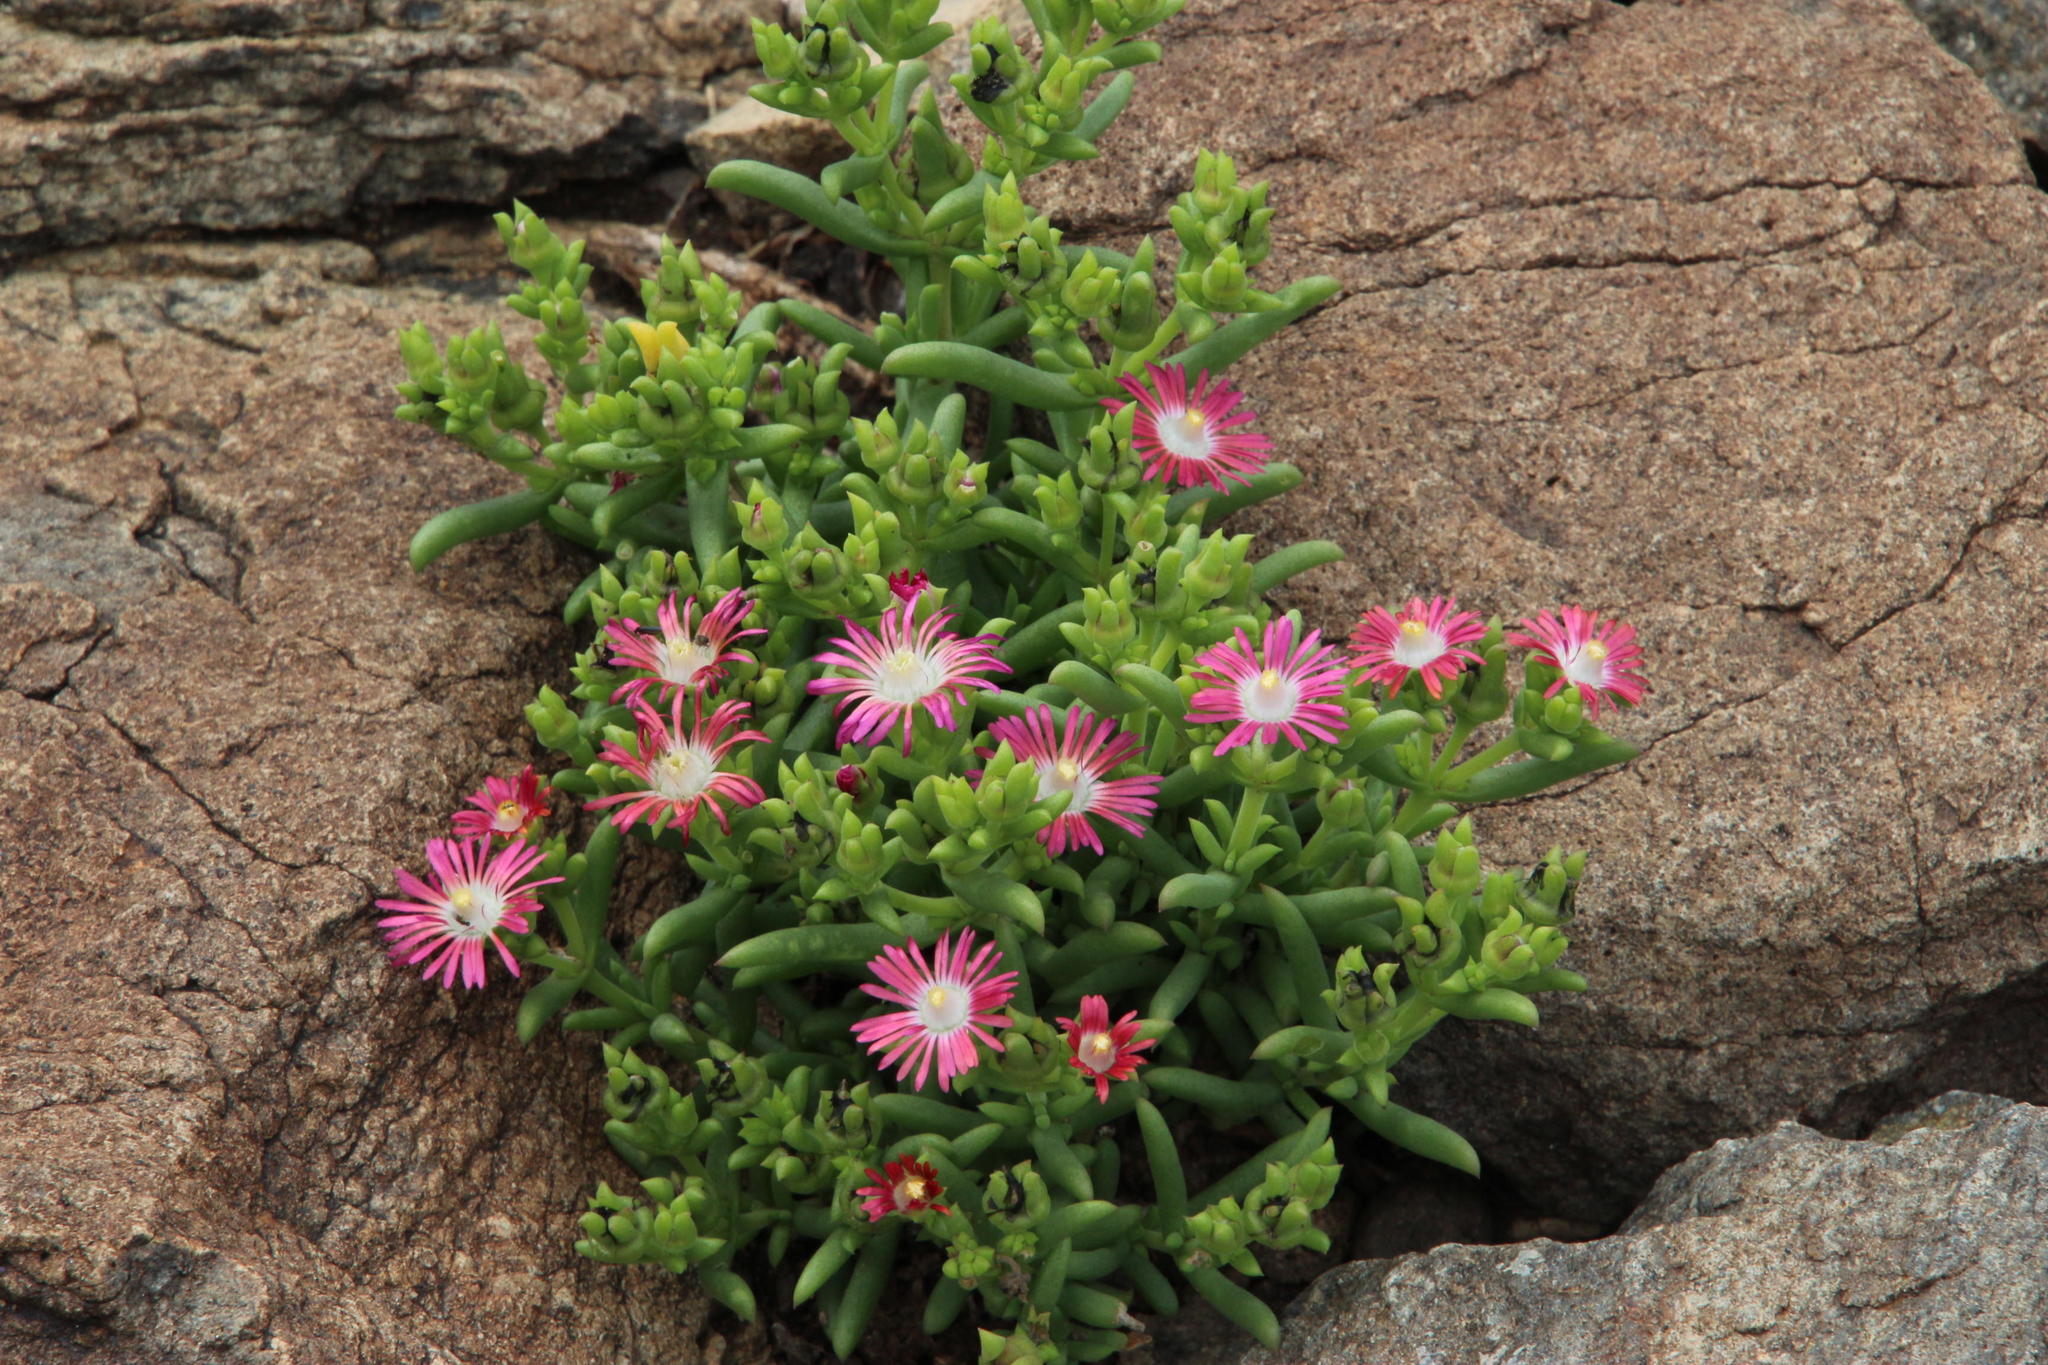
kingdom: Plantae
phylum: Tracheophyta
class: Magnoliopsida
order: Caryophyllales
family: Aizoaceae
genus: Delosperma
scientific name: Delosperma multiflorum
